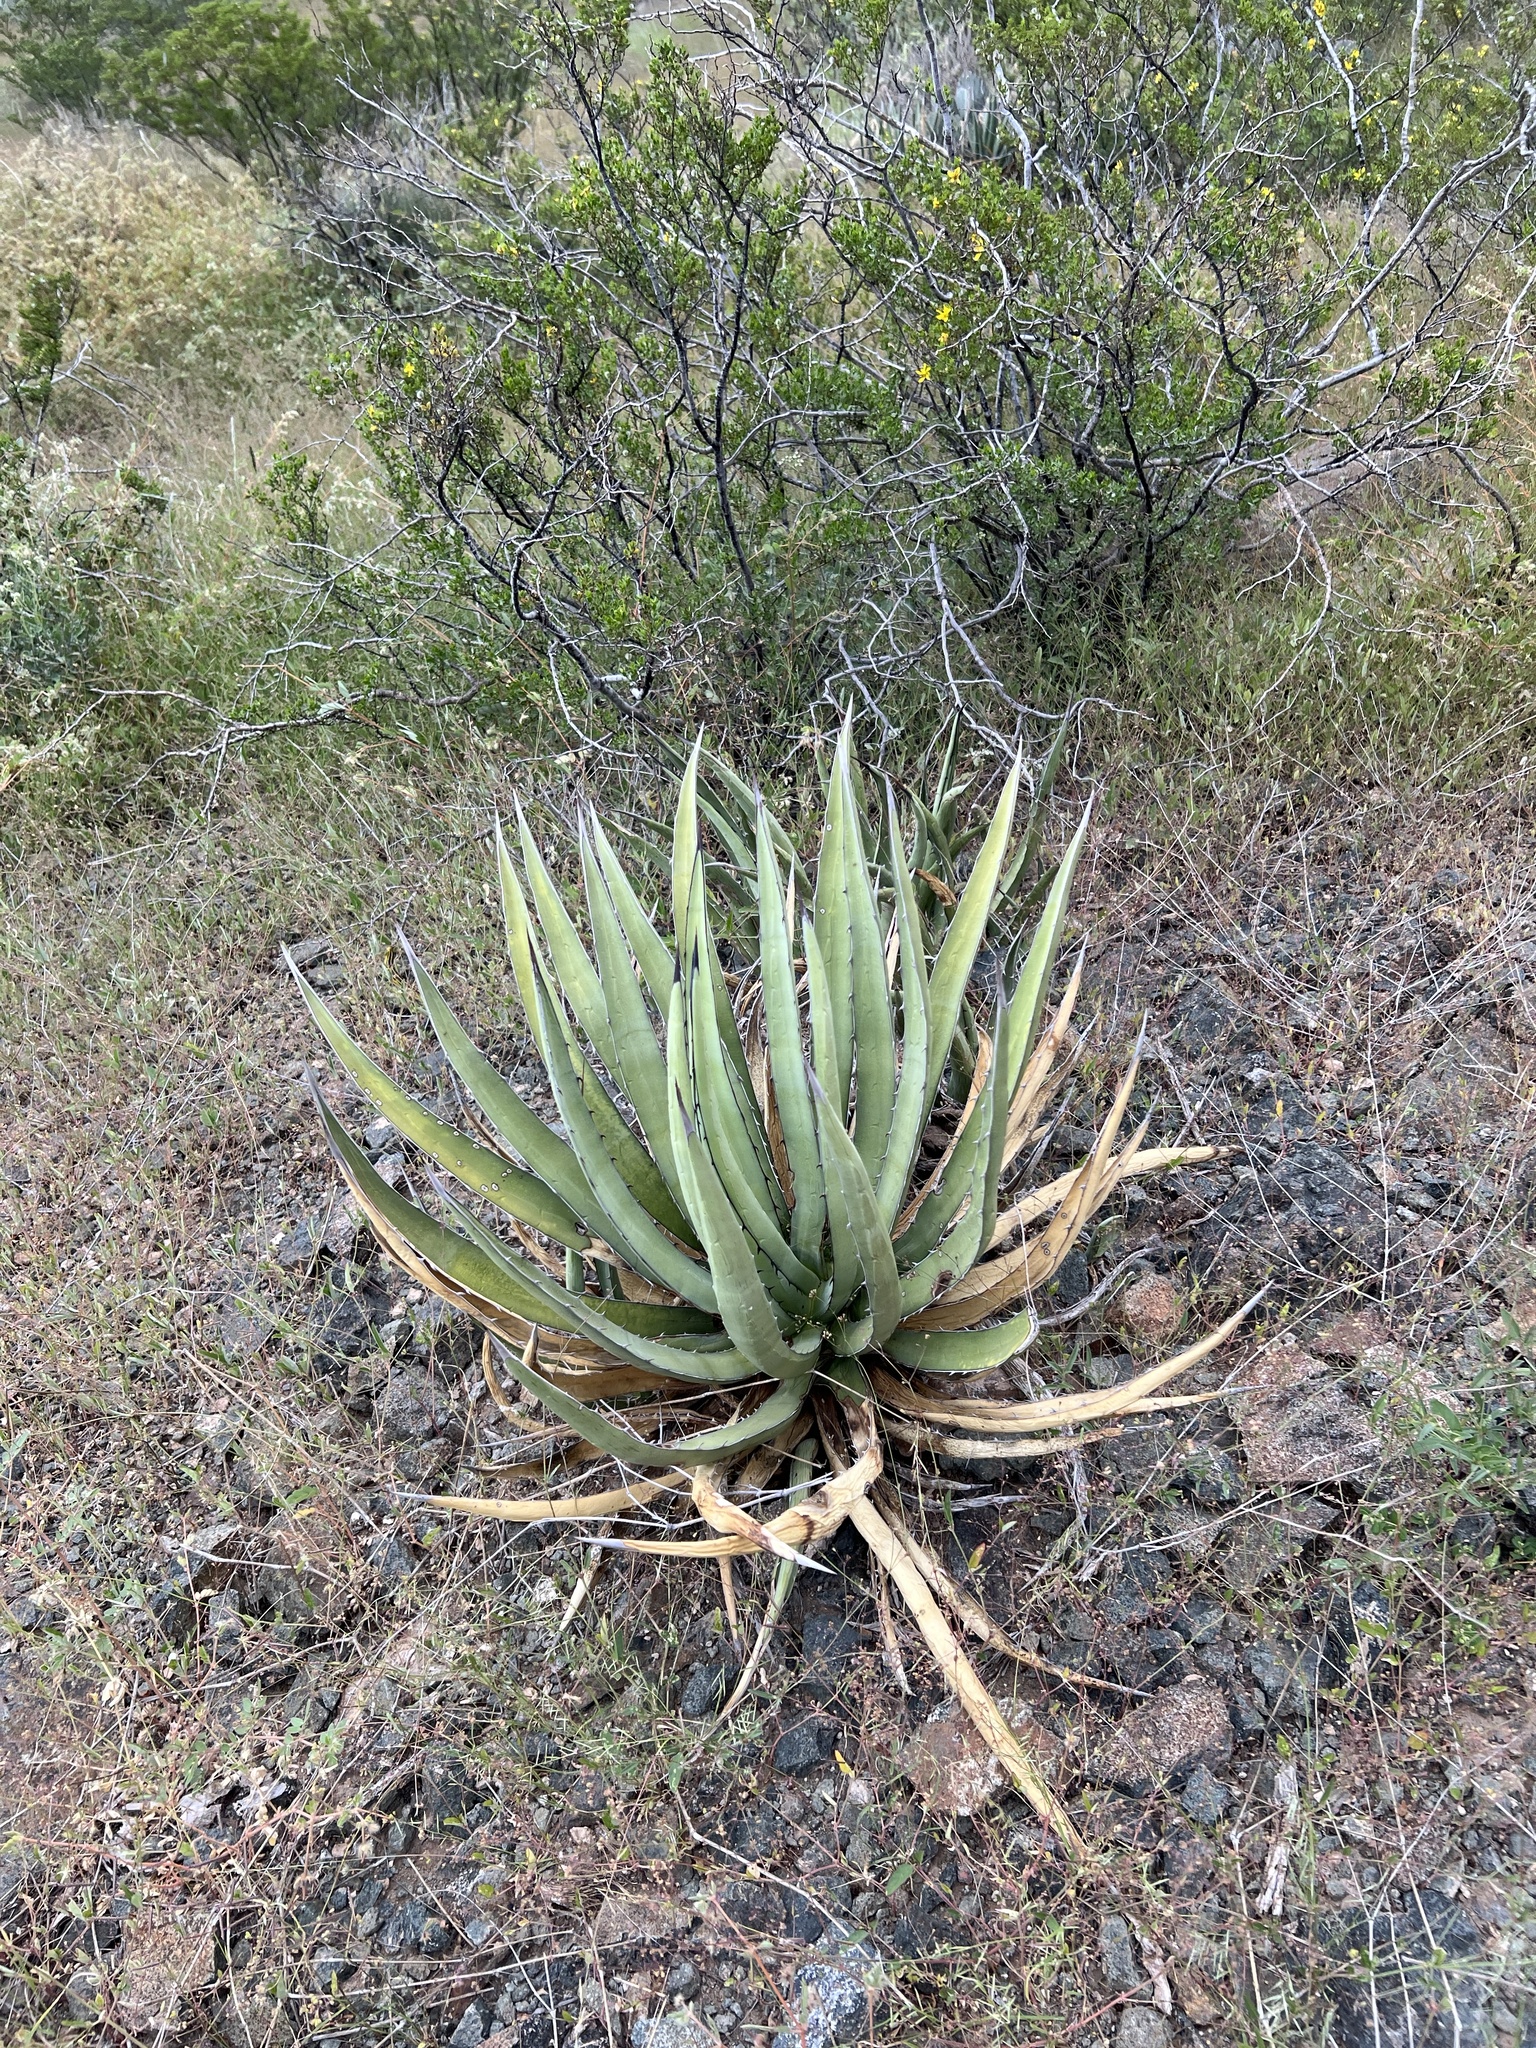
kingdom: Plantae
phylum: Tracheophyta
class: Liliopsida
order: Asparagales
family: Asparagaceae
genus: Agave
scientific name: Agave lechuguilla
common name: Lecheguilla agave
